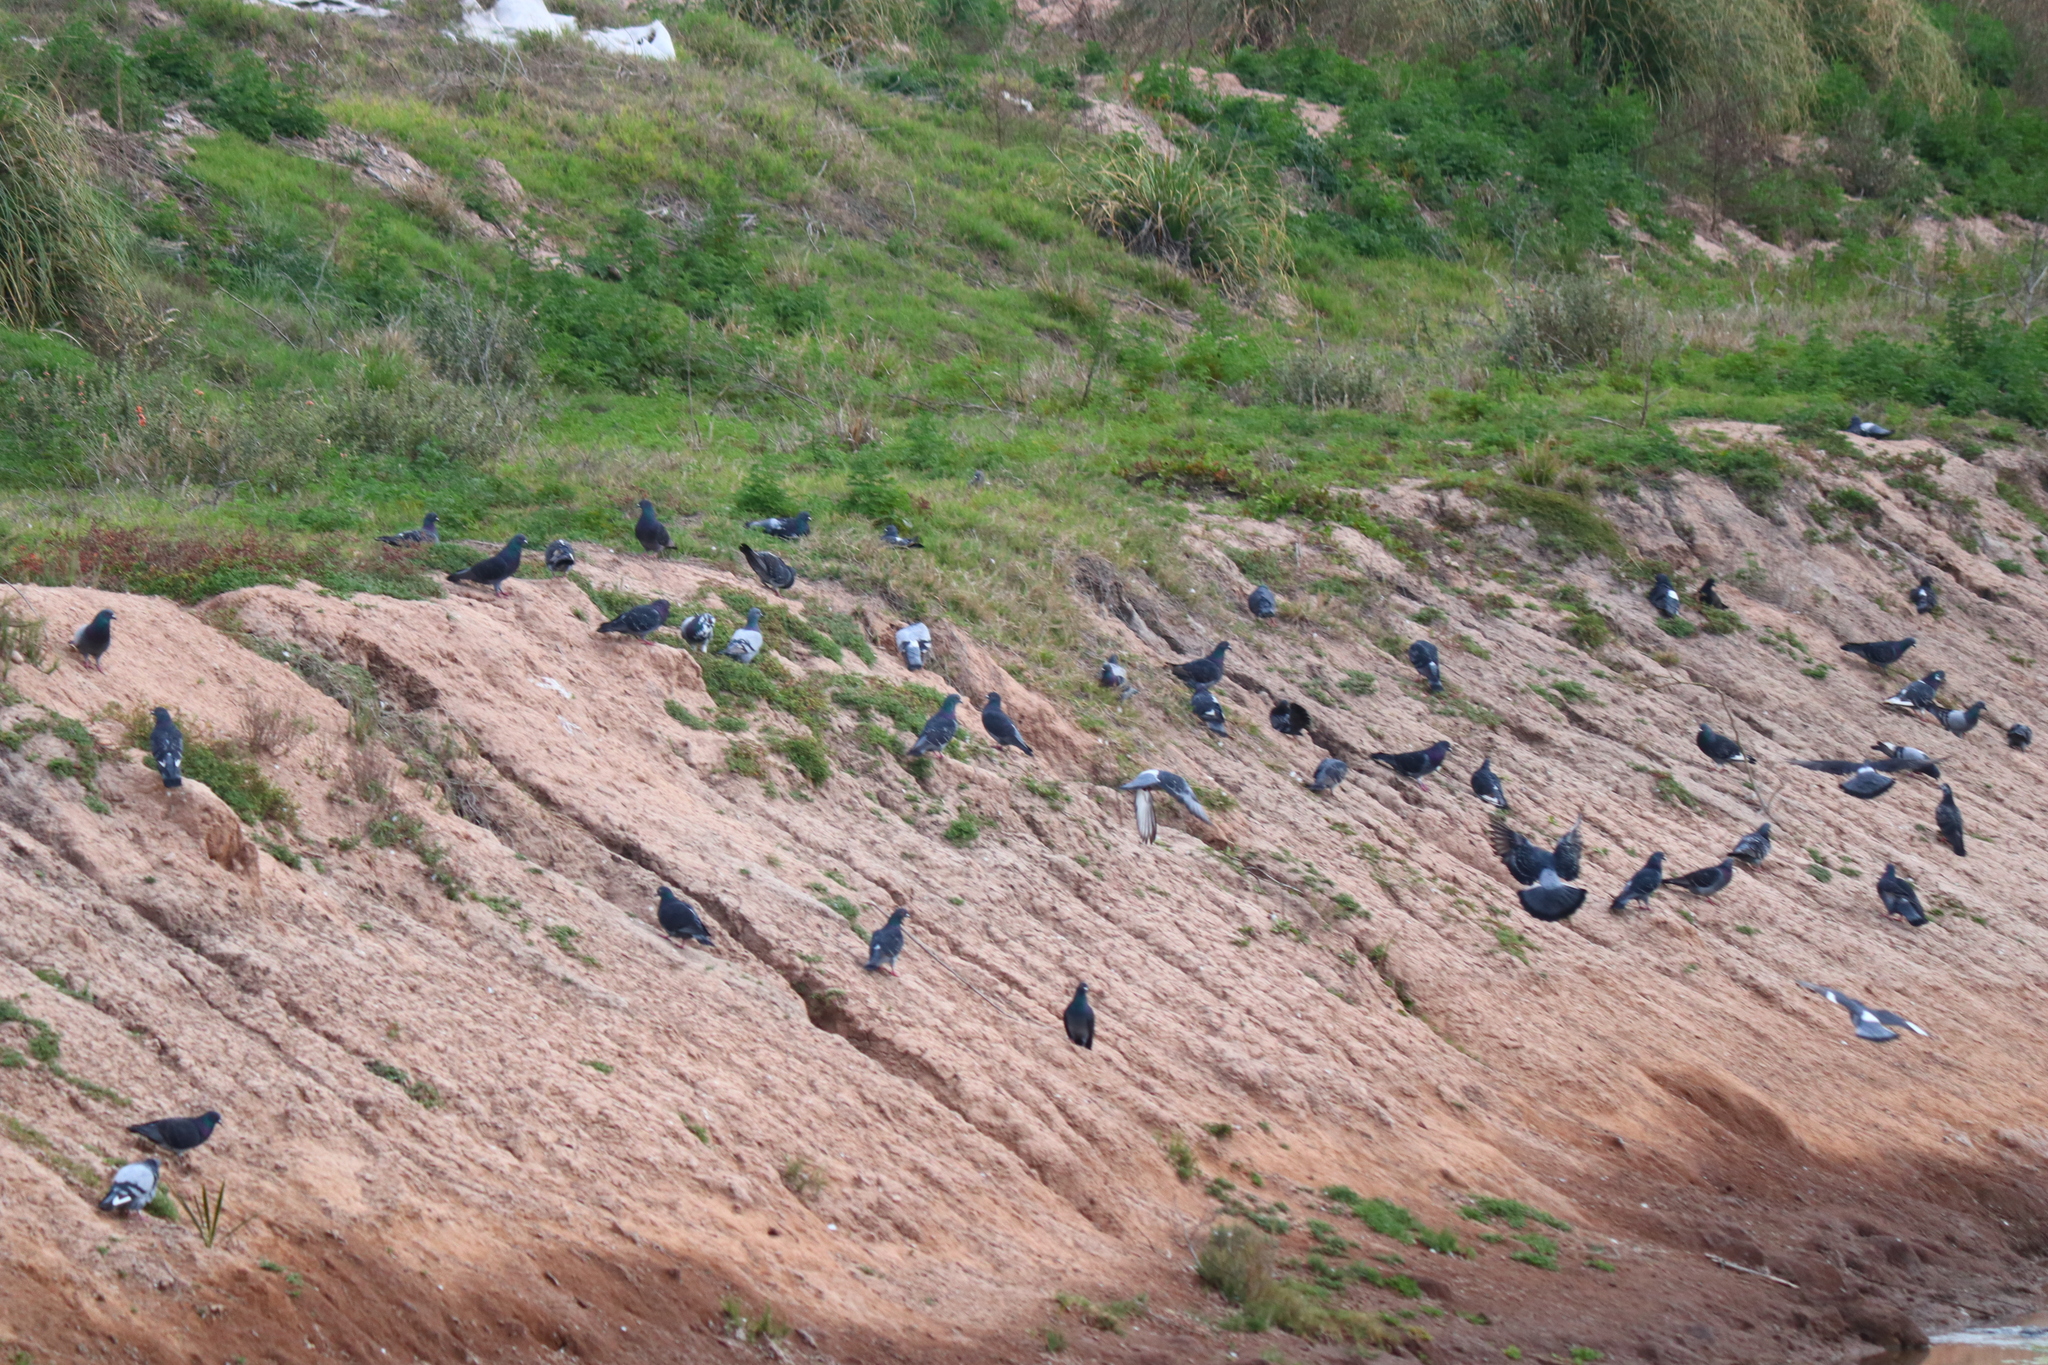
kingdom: Animalia
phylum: Chordata
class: Aves
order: Columbiformes
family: Columbidae
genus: Columba
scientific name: Columba livia
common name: Rock pigeon
